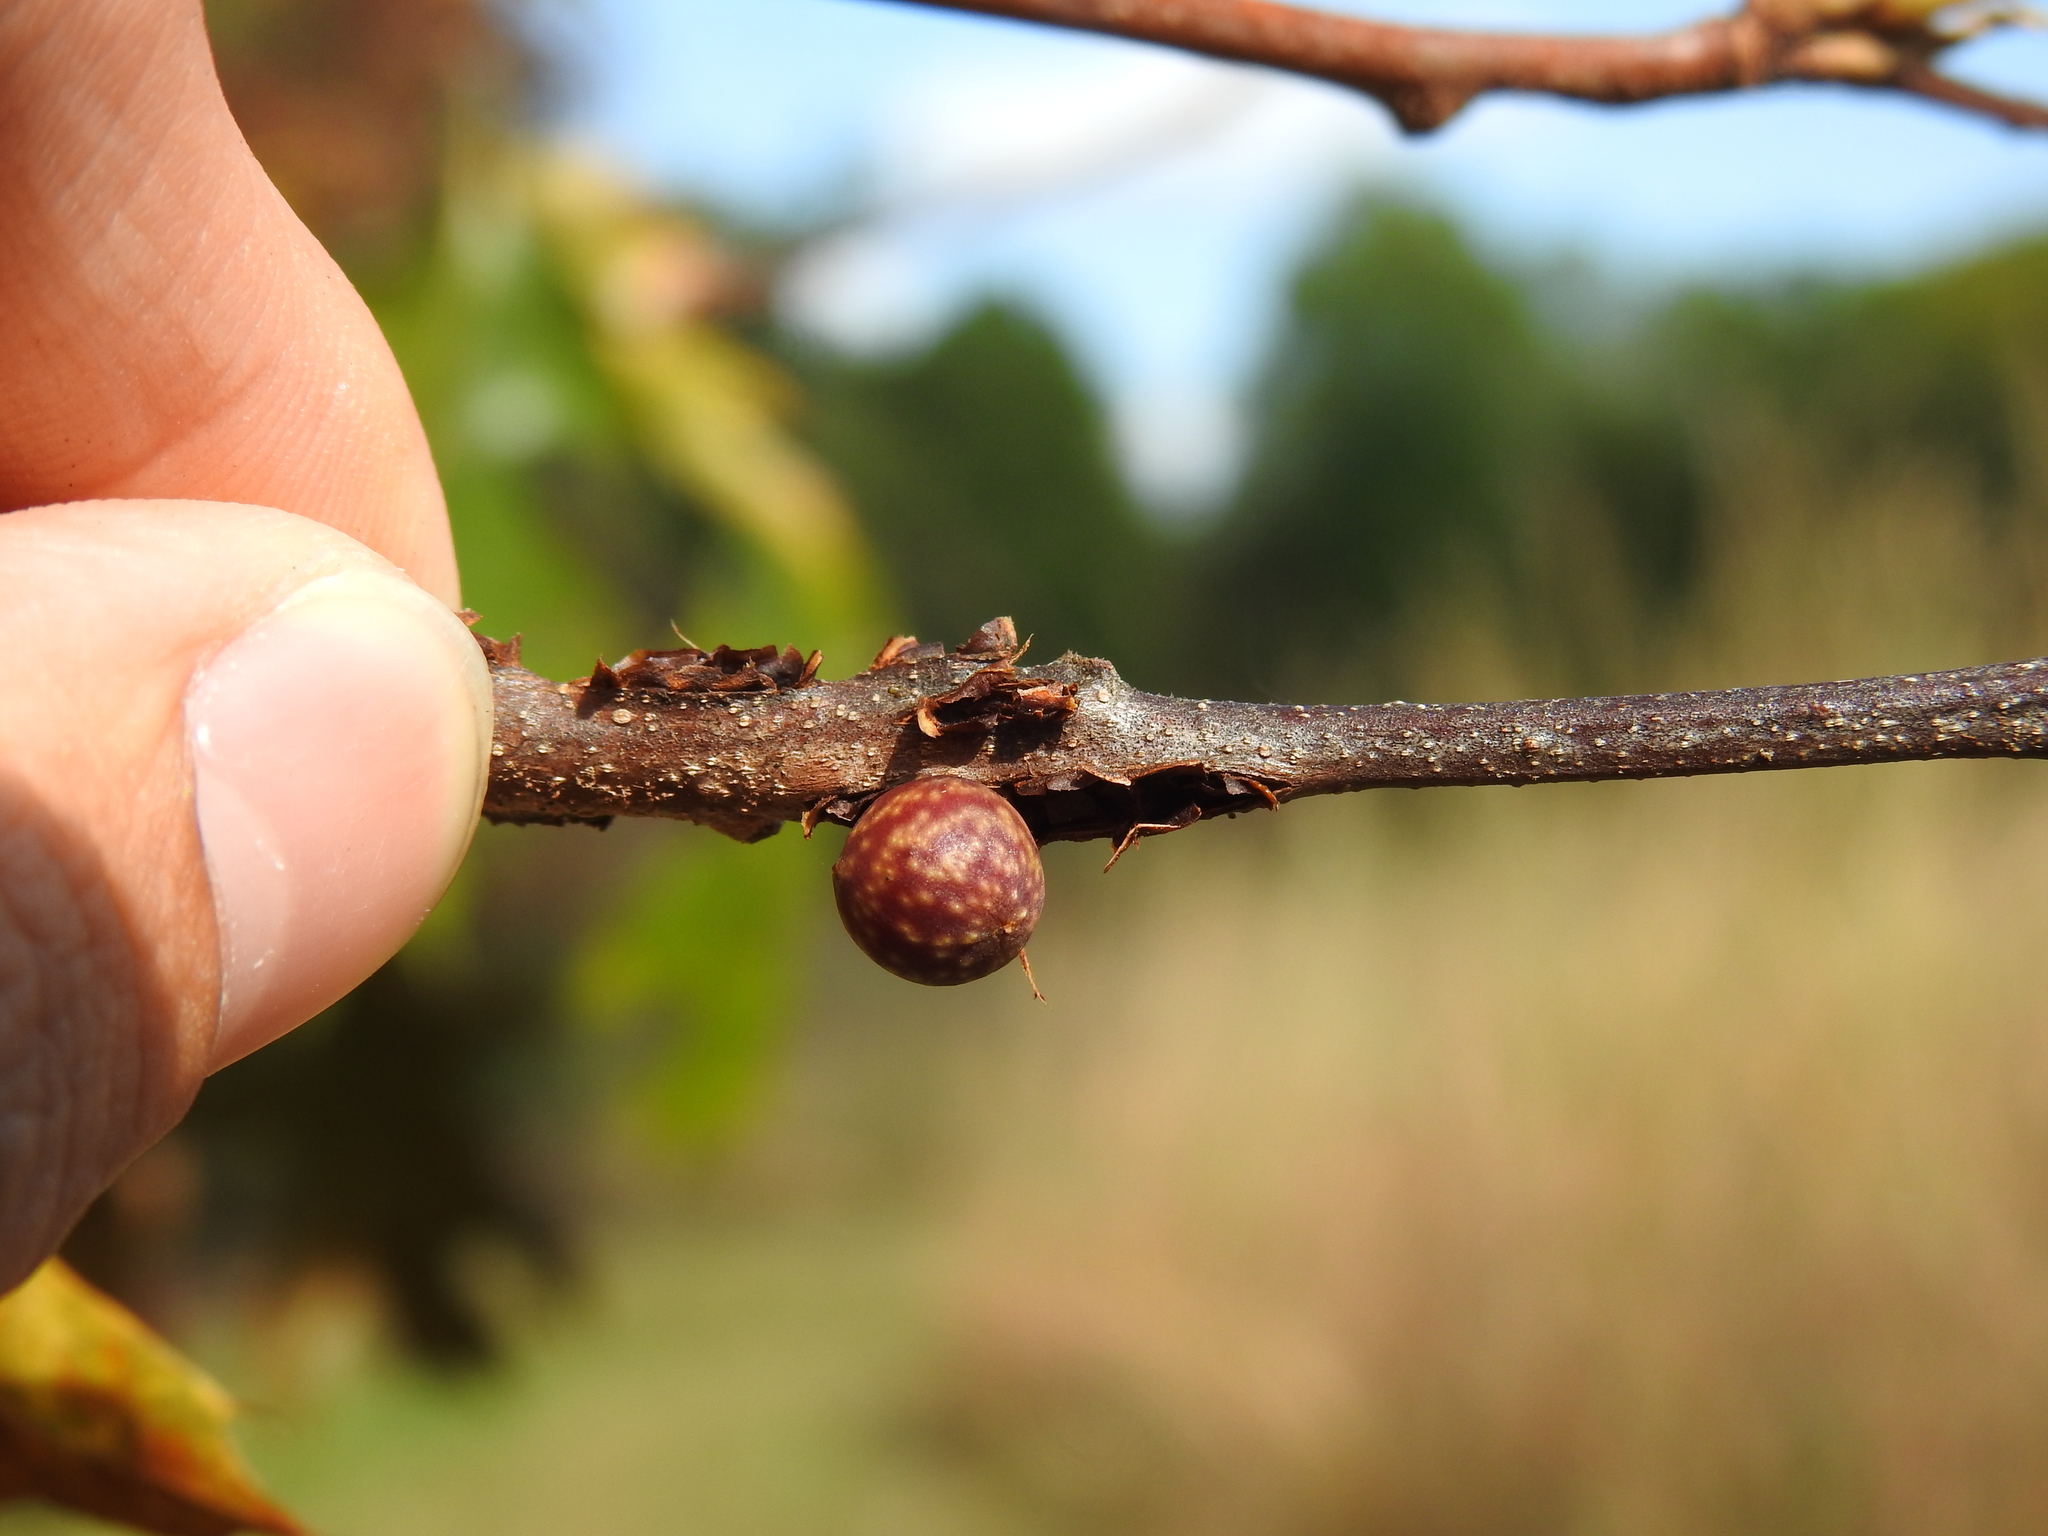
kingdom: Animalia
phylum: Arthropoda
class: Insecta
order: Hymenoptera
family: Cynipidae
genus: Kokkocynips
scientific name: Kokkocynips imbricariae
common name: Banded bullet gall wasp
